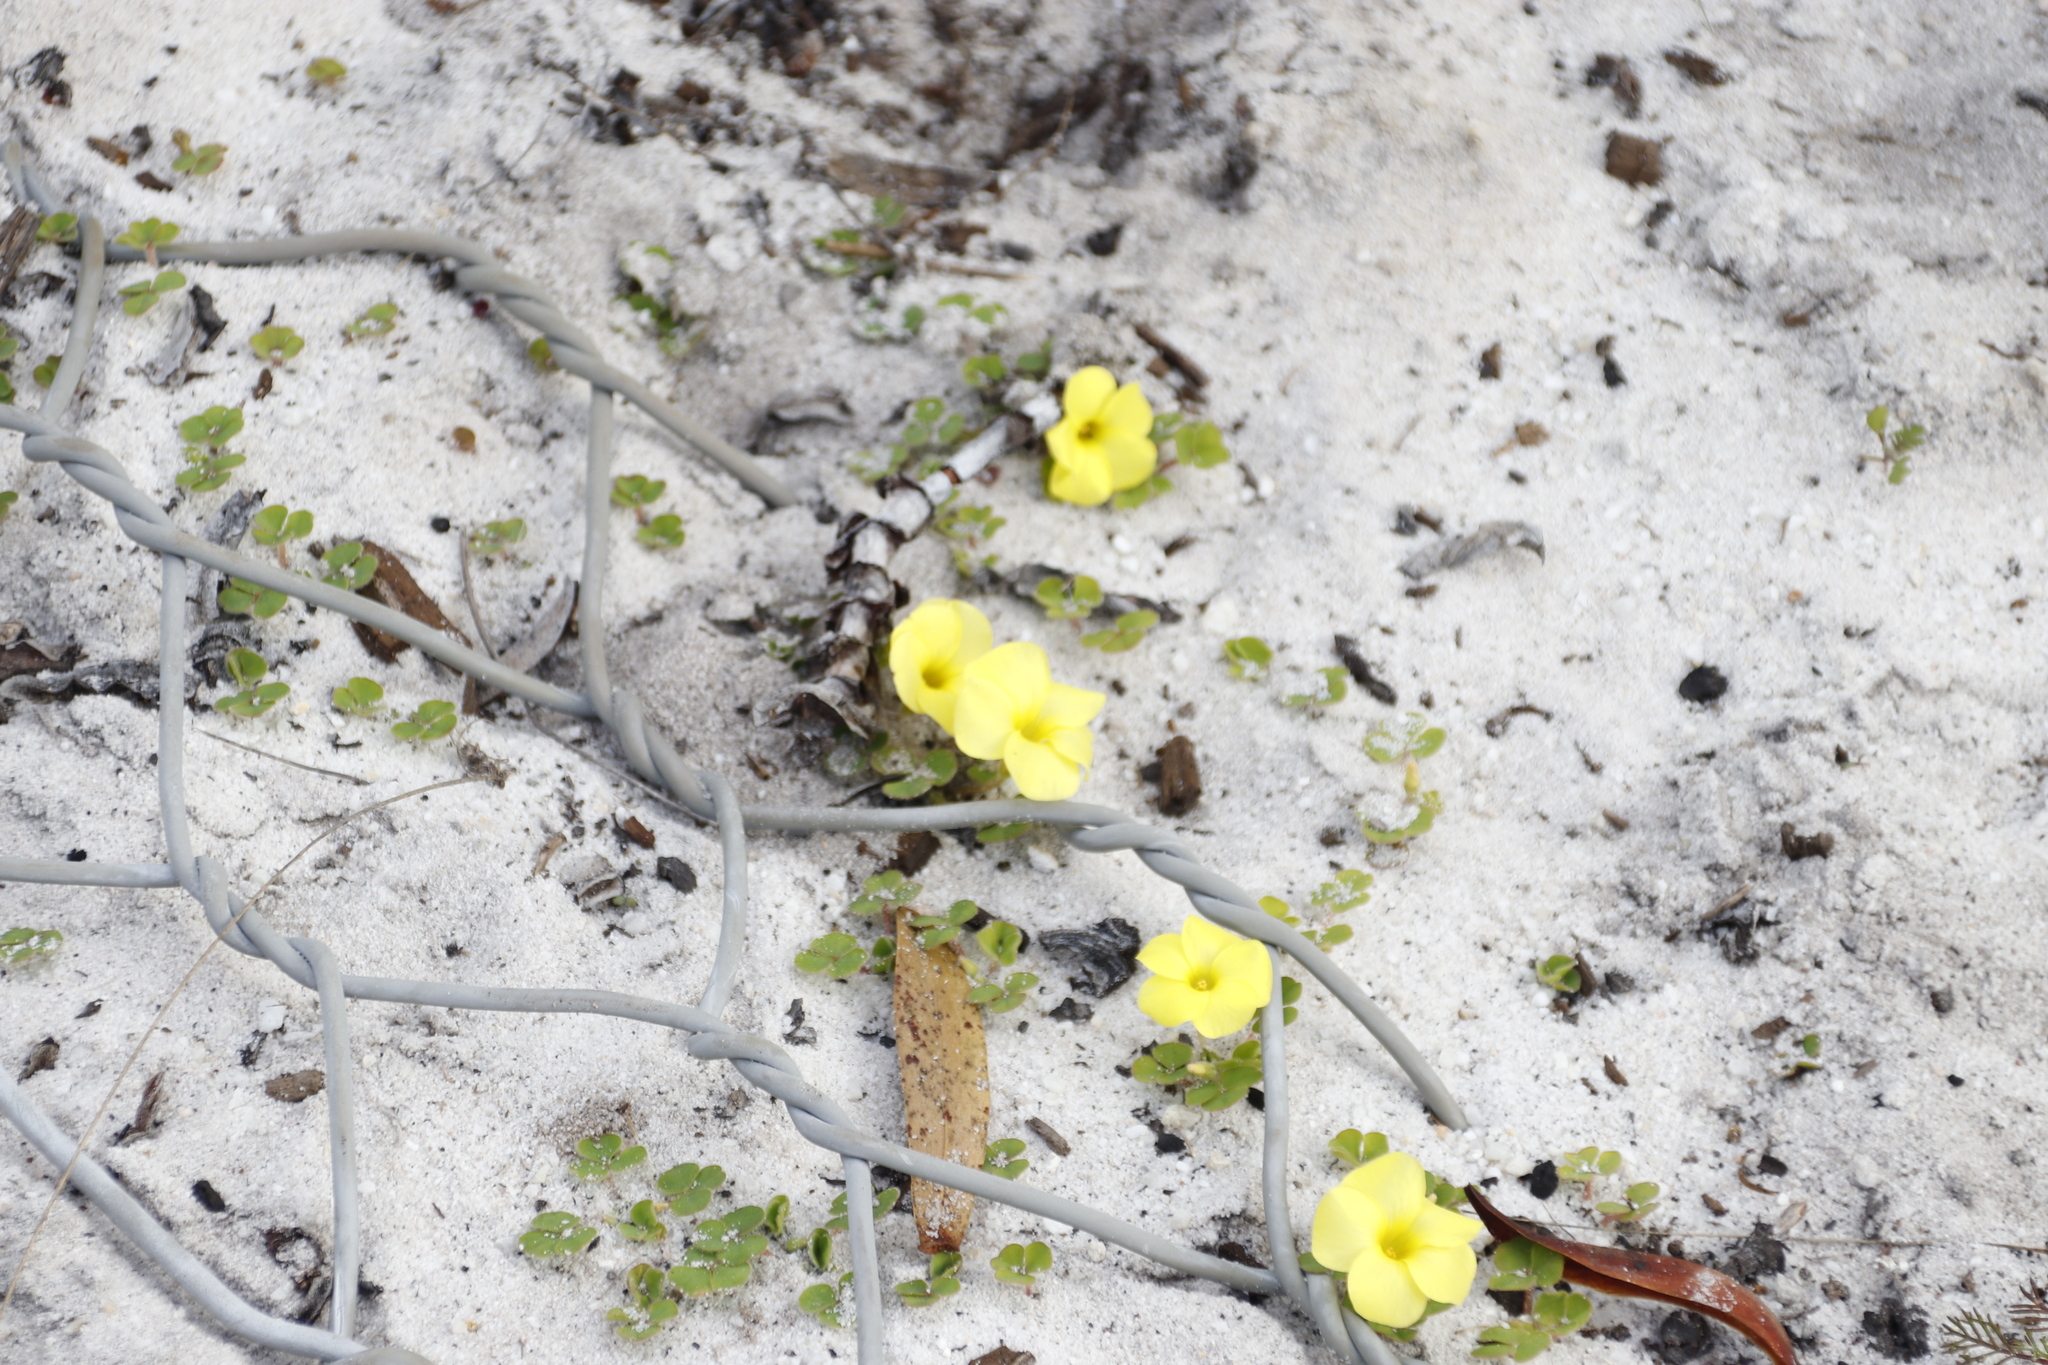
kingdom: Plantae
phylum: Tracheophyta
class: Magnoliopsida
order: Oxalidales
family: Oxalidaceae
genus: Oxalis
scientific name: Oxalis luteola
